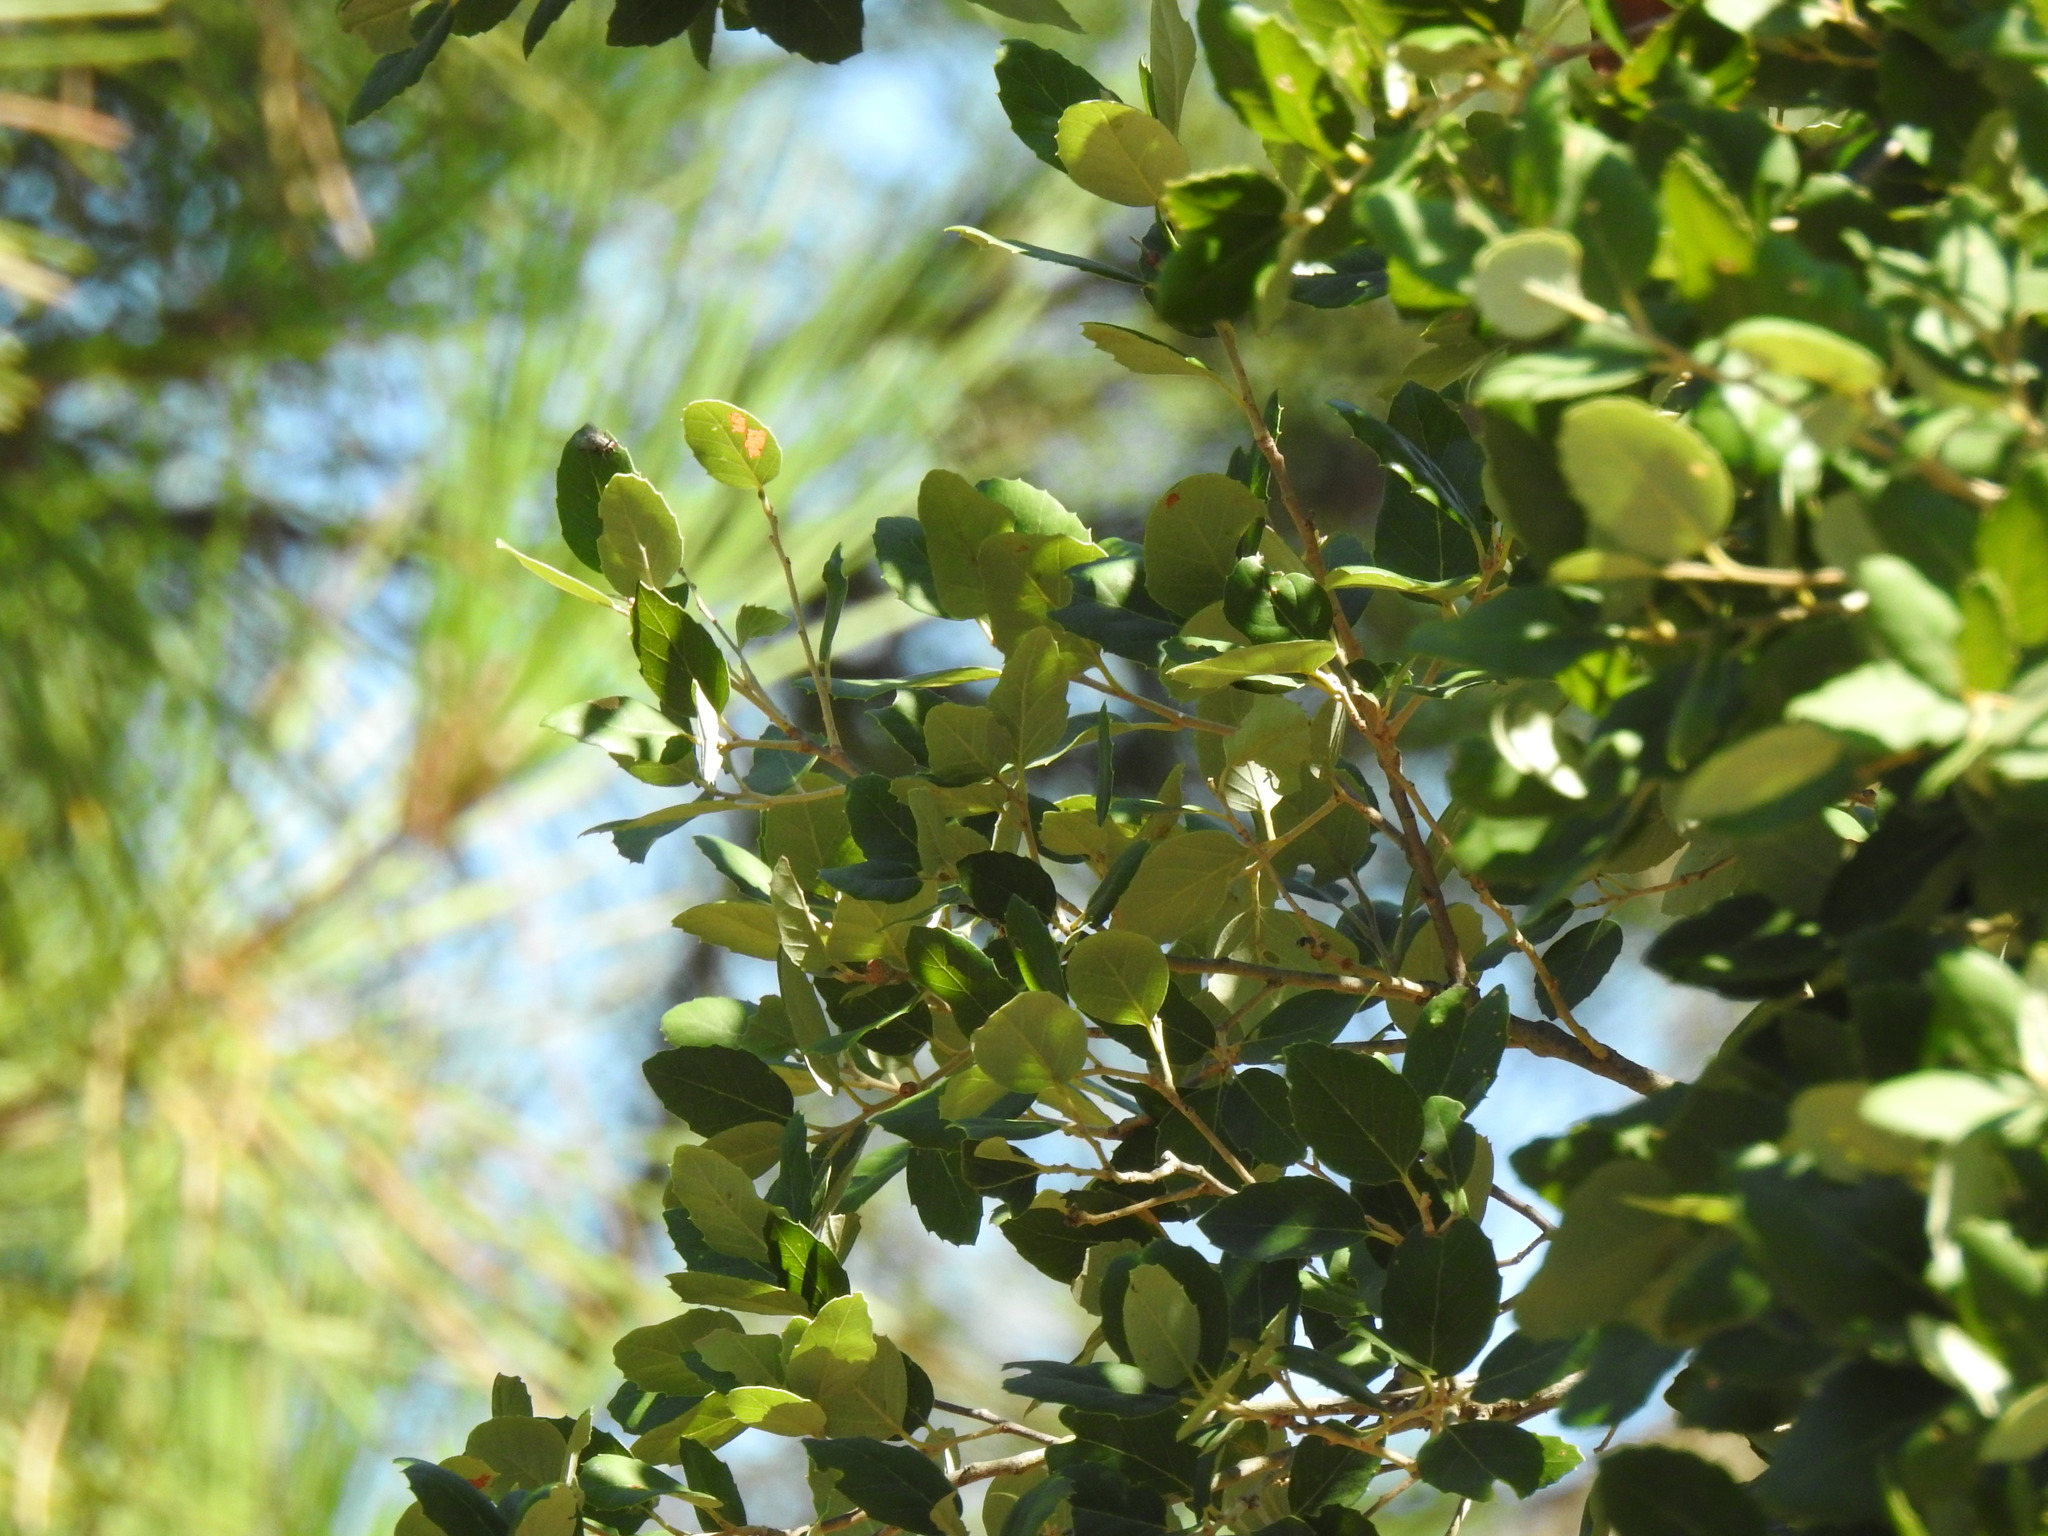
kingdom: Plantae
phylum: Tracheophyta
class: Magnoliopsida
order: Fagales
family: Fagaceae
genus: Quercus
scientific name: Quercus suber
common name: Cork oak
